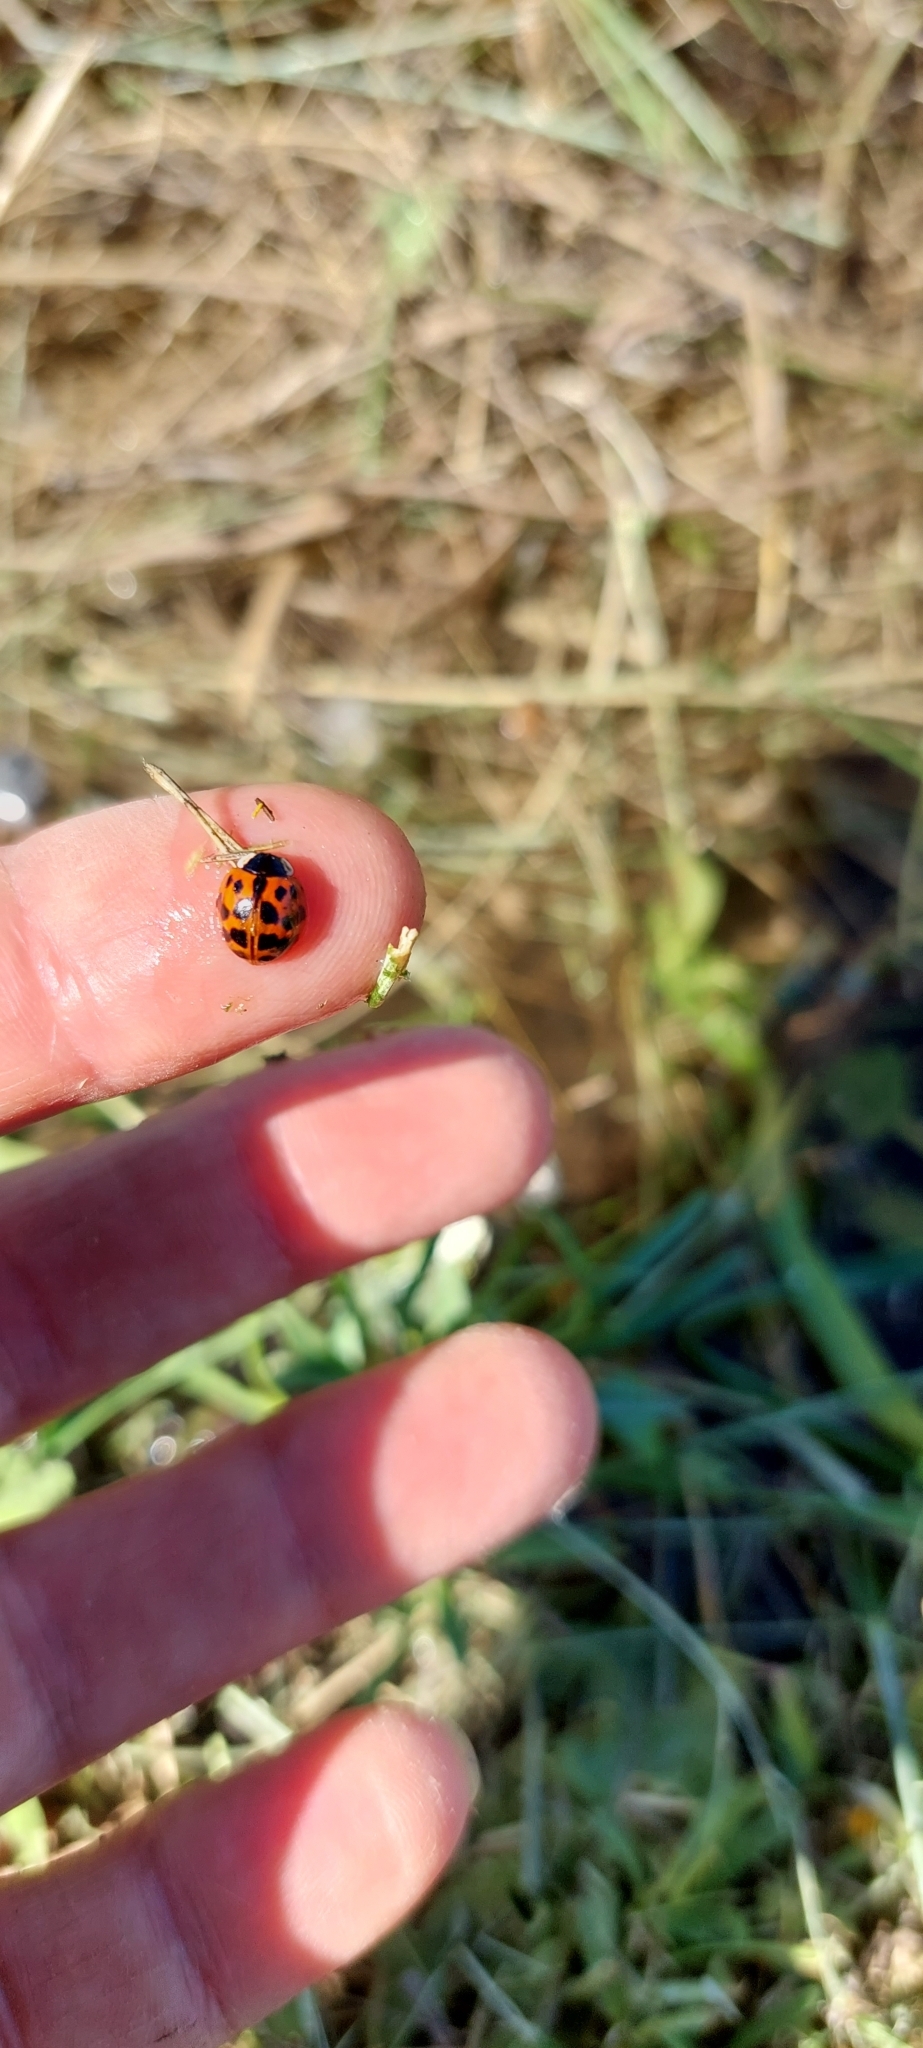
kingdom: Animalia
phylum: Arthropoda
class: Insecta
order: Coleoptera
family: Coccinellidae
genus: Harmonia
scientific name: Harmonia axyridis
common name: Harlequin ladybird
